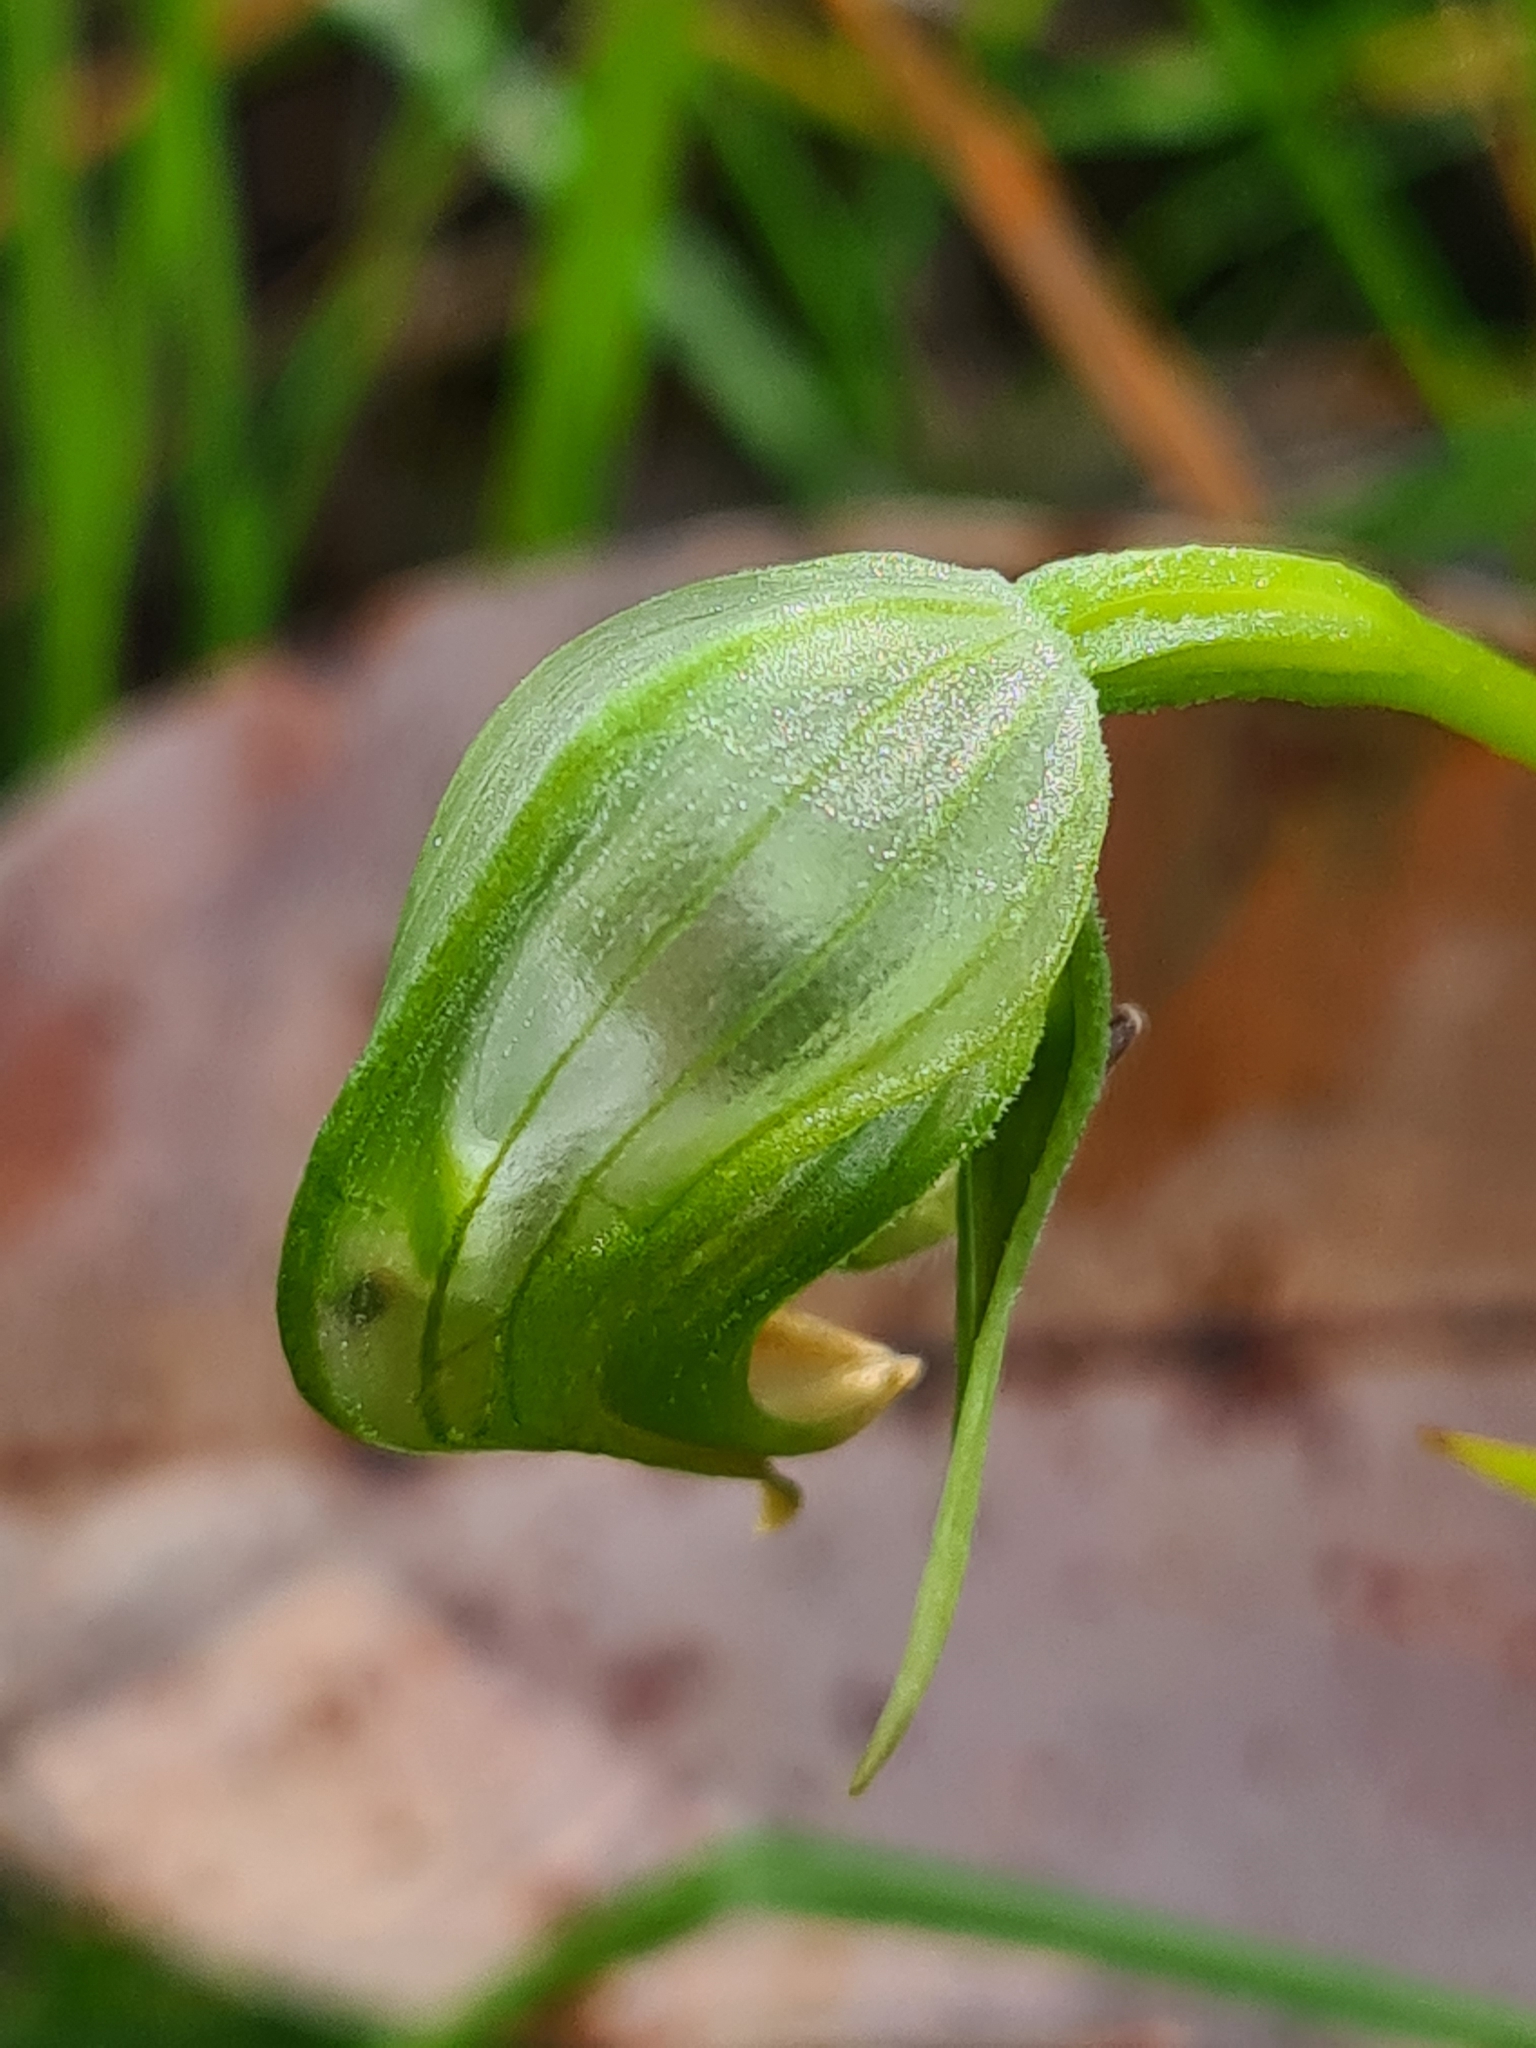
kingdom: Plantae
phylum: Tracheophyta
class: Liliopsida
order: Asparagales
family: Orchidaceae
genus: Pterostylis
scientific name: Pterostylis nutans
